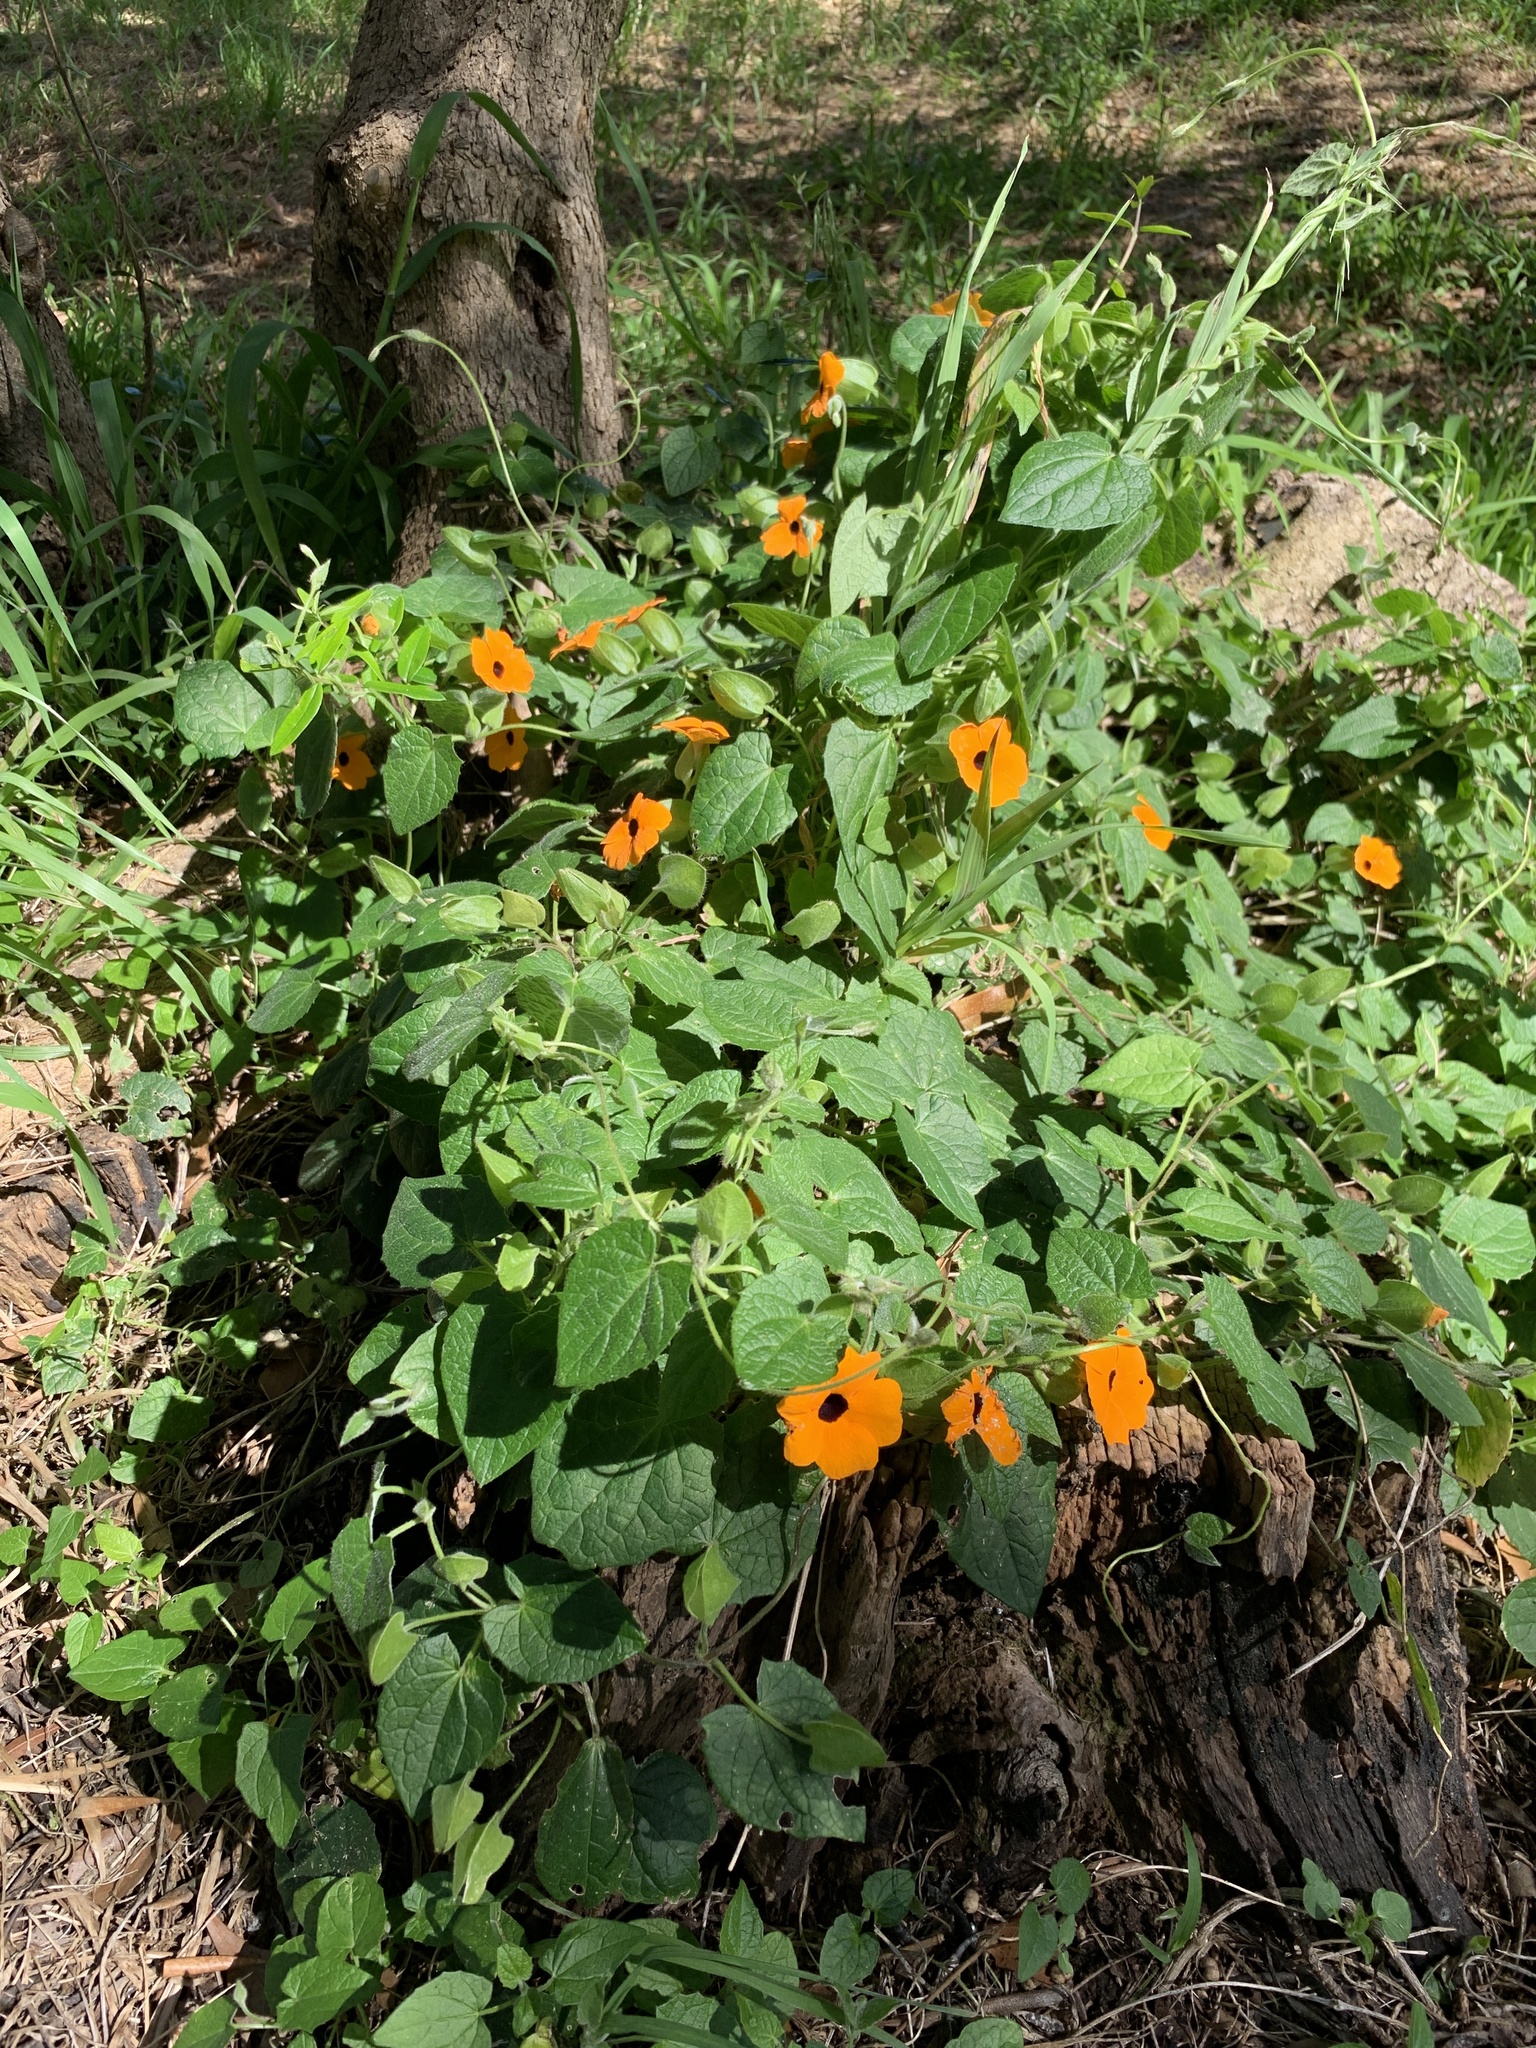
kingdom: Plantae
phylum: Tracheophyta
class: Magnoliopsida
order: Lamiales
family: Acanthaceae
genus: Thunbergia
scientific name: Thunbergia alata
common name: Blackeyed susan vine
